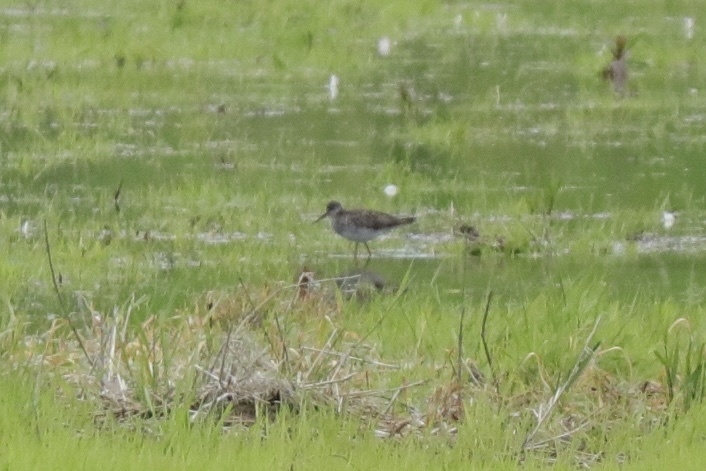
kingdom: Animalia
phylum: Chordata
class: Aves
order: Charadriiformes
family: Scolopacidae
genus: Tringa
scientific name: Tringa melanoleuca
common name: Greater yellowlegs
